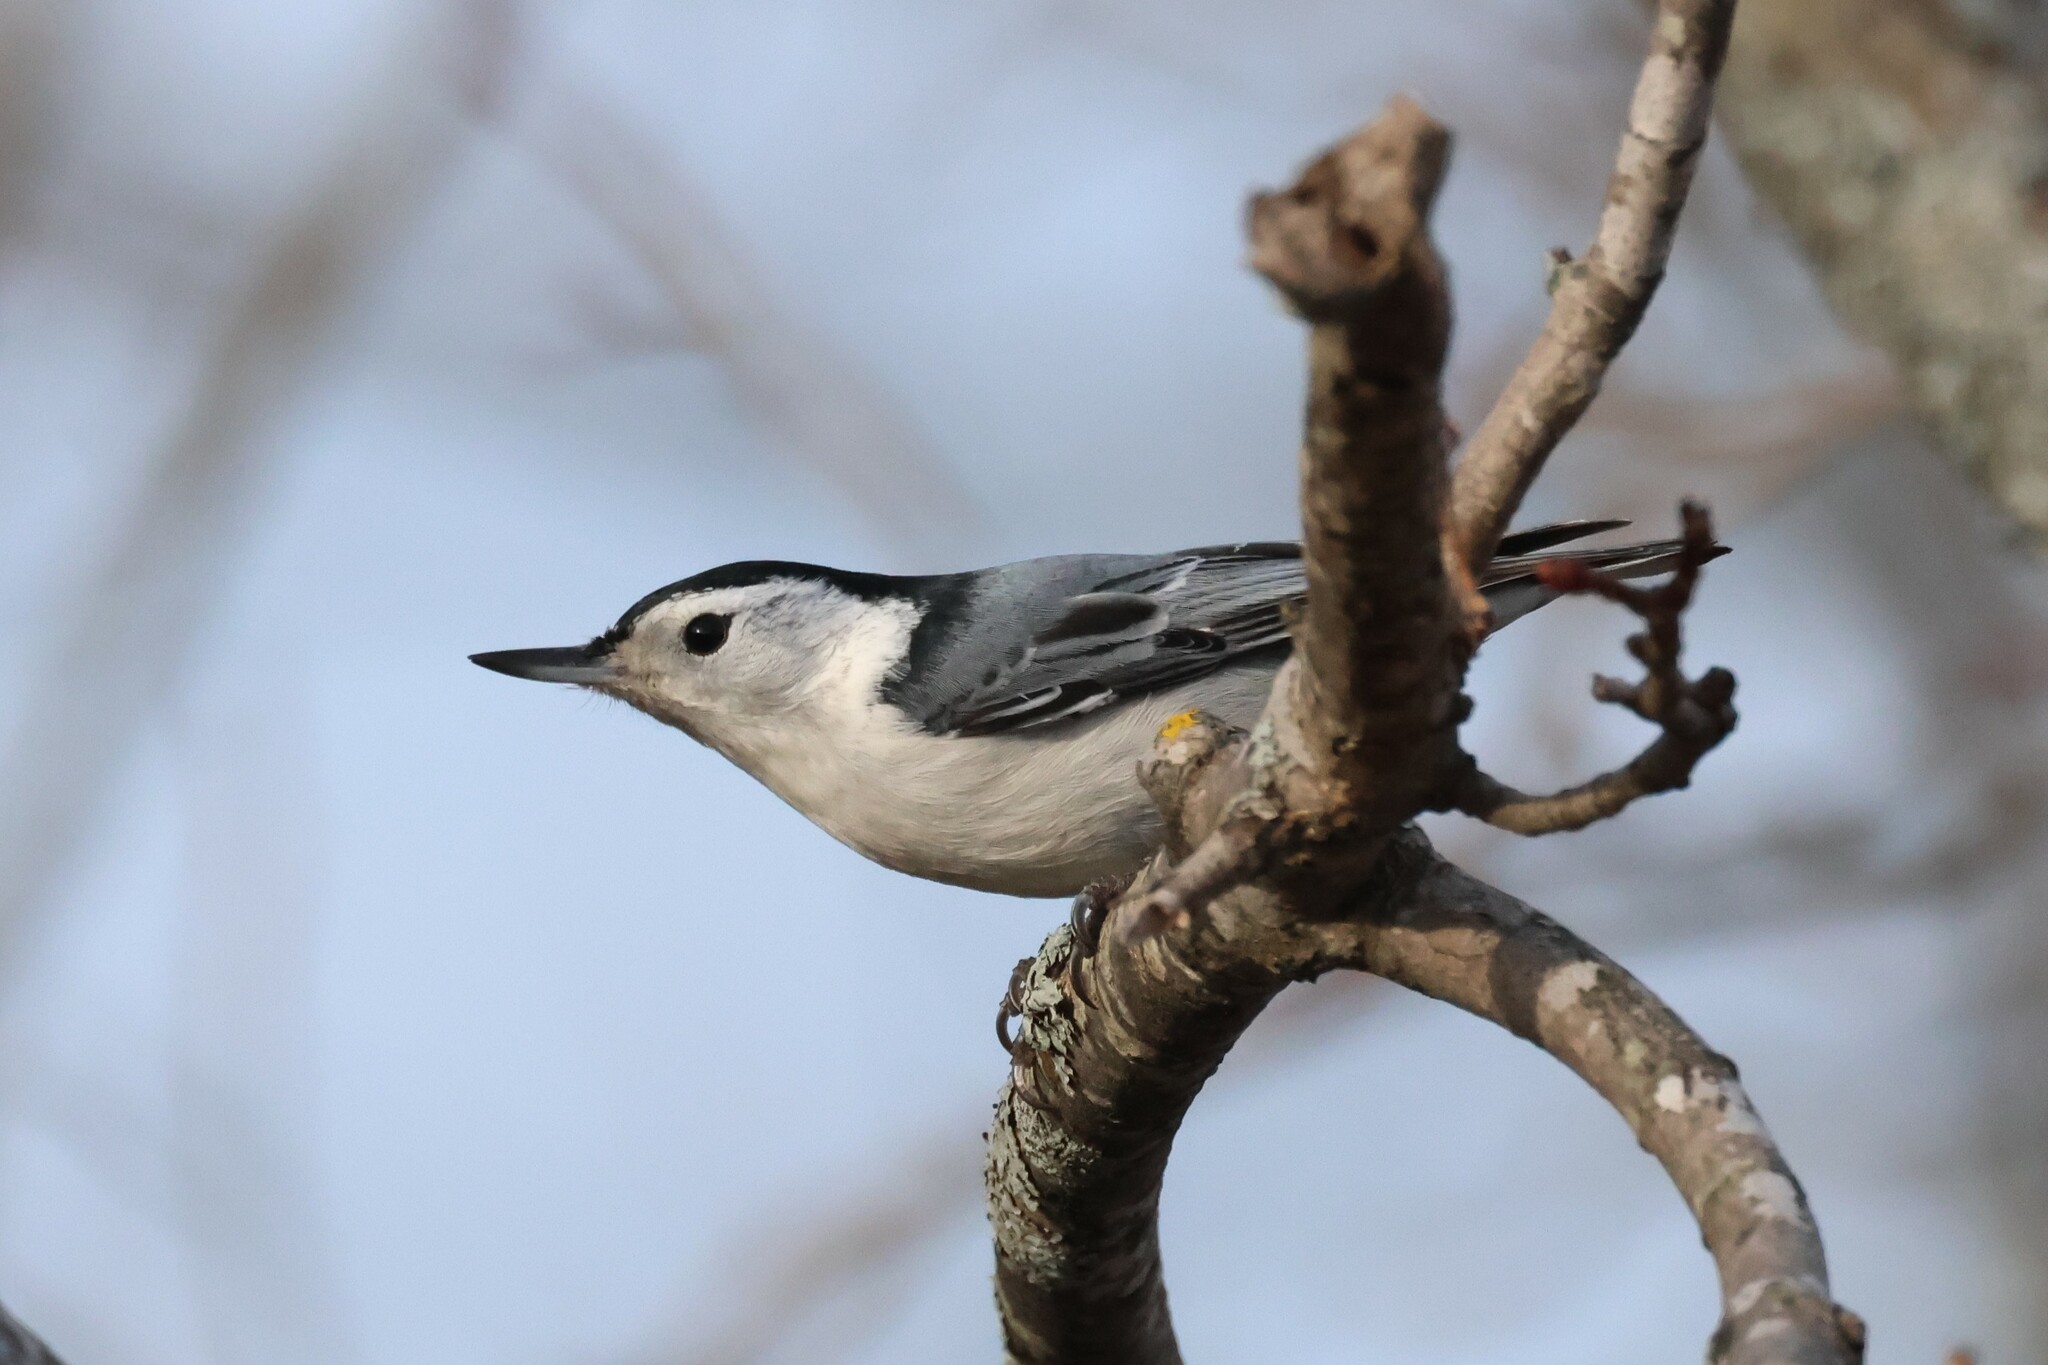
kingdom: Animalia
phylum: Chordata
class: Aves
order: Passeriformes
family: Sittidae
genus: Sitta
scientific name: Sitta carolinensis
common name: White-breasted nuthatch
